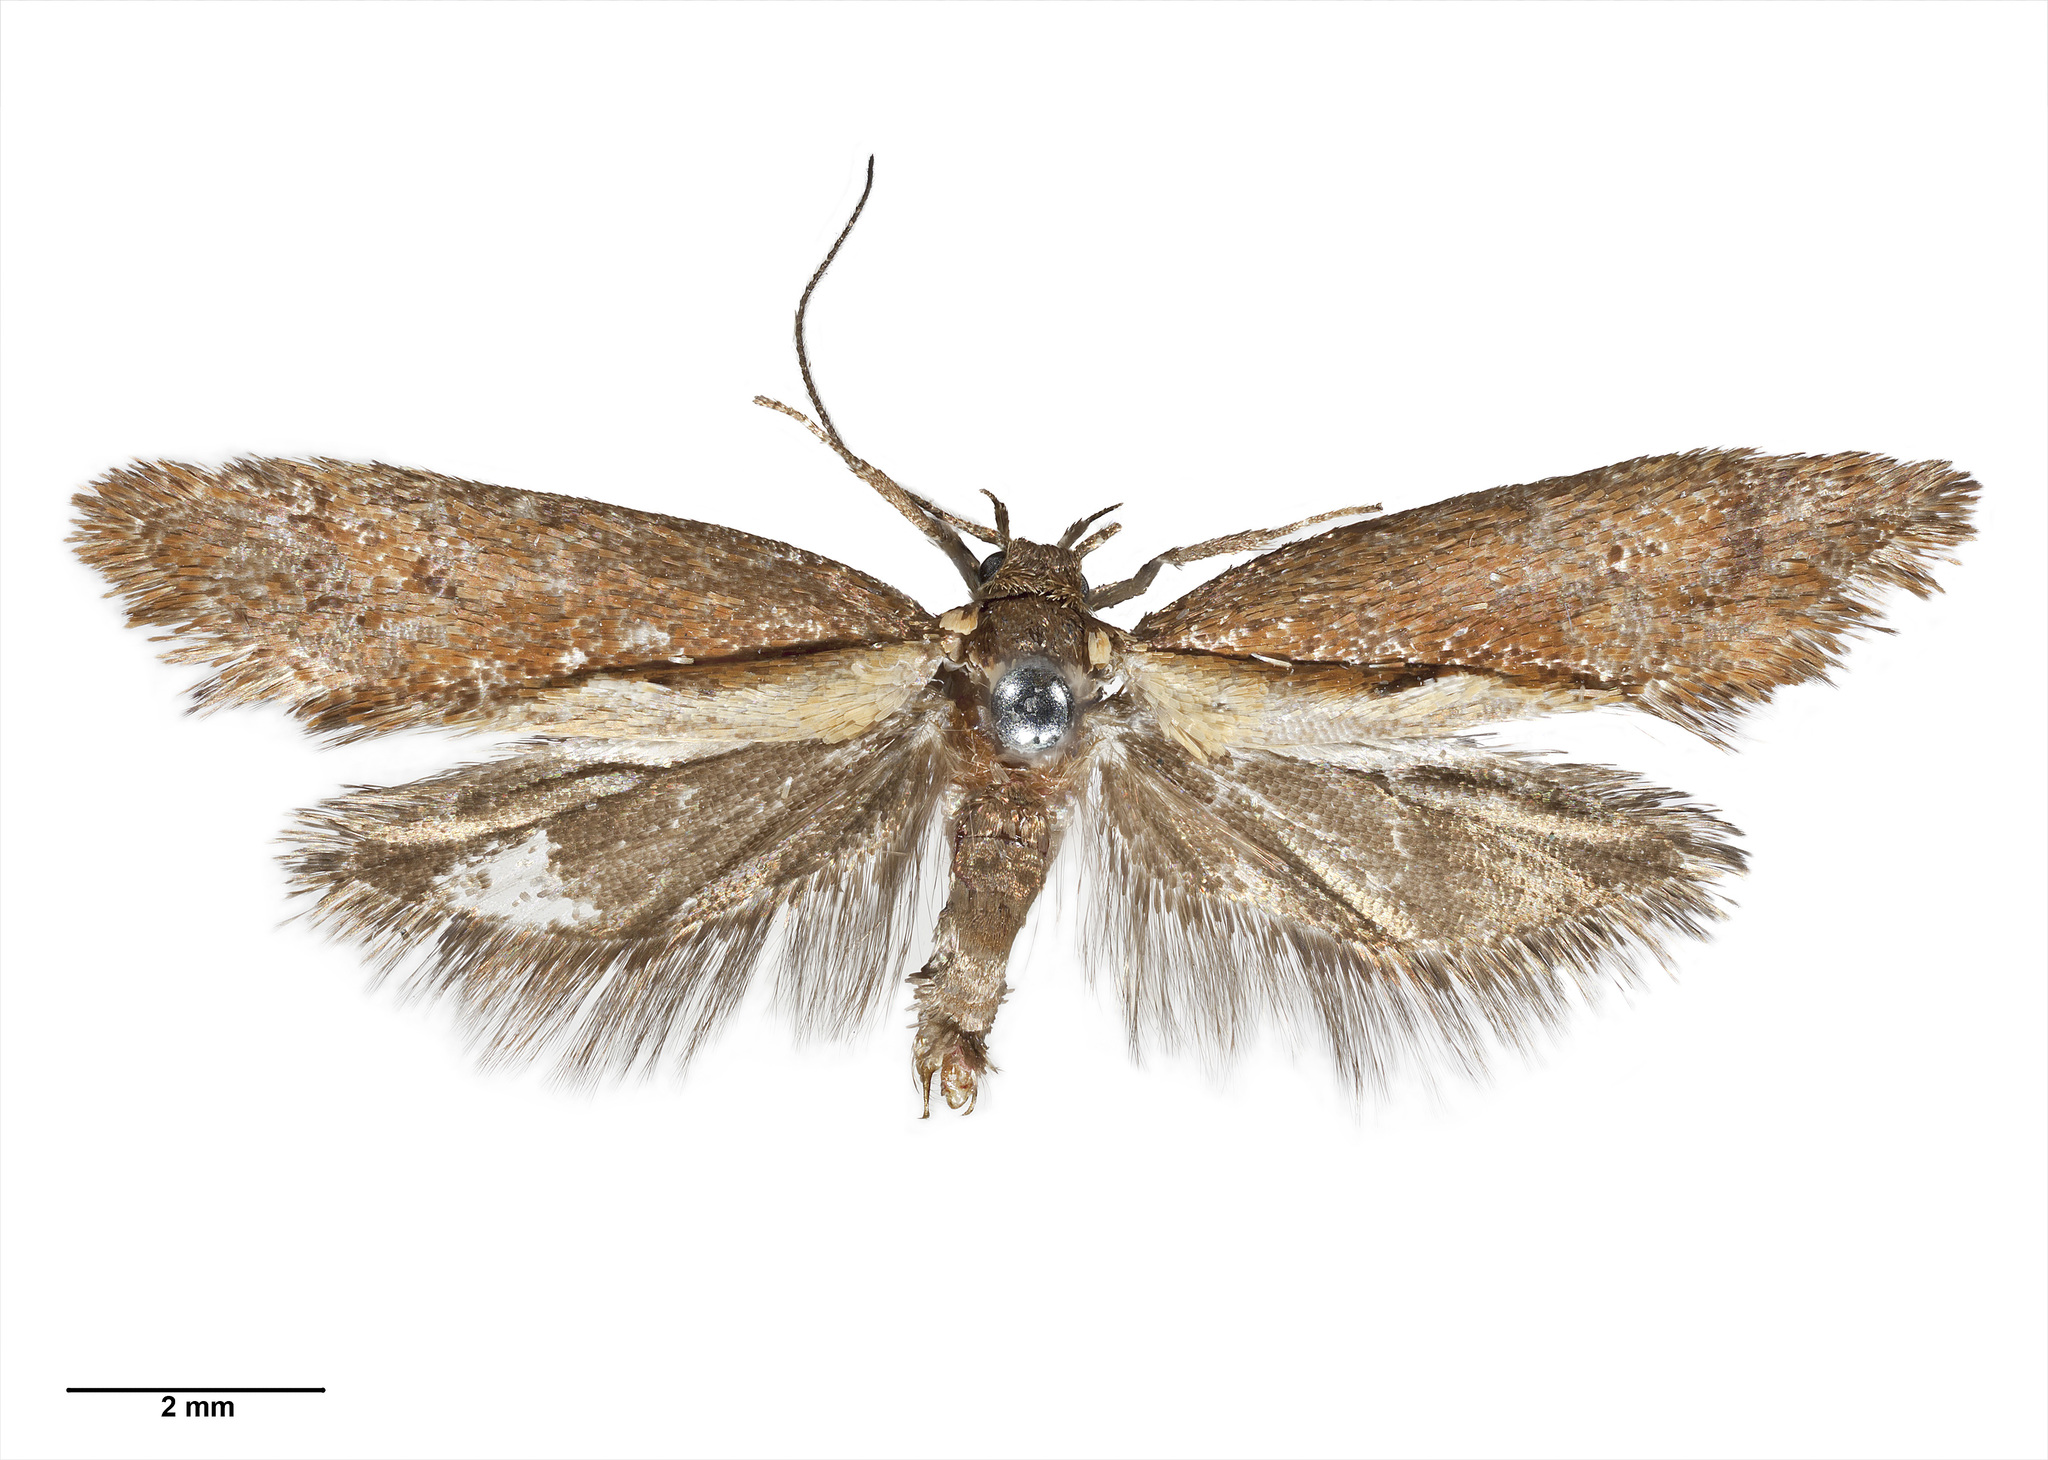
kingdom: Animalia
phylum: Arthropoda
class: Insecta
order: Lepidoptera
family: Oecophoridae
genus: Tingena
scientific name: Tingena laudata
